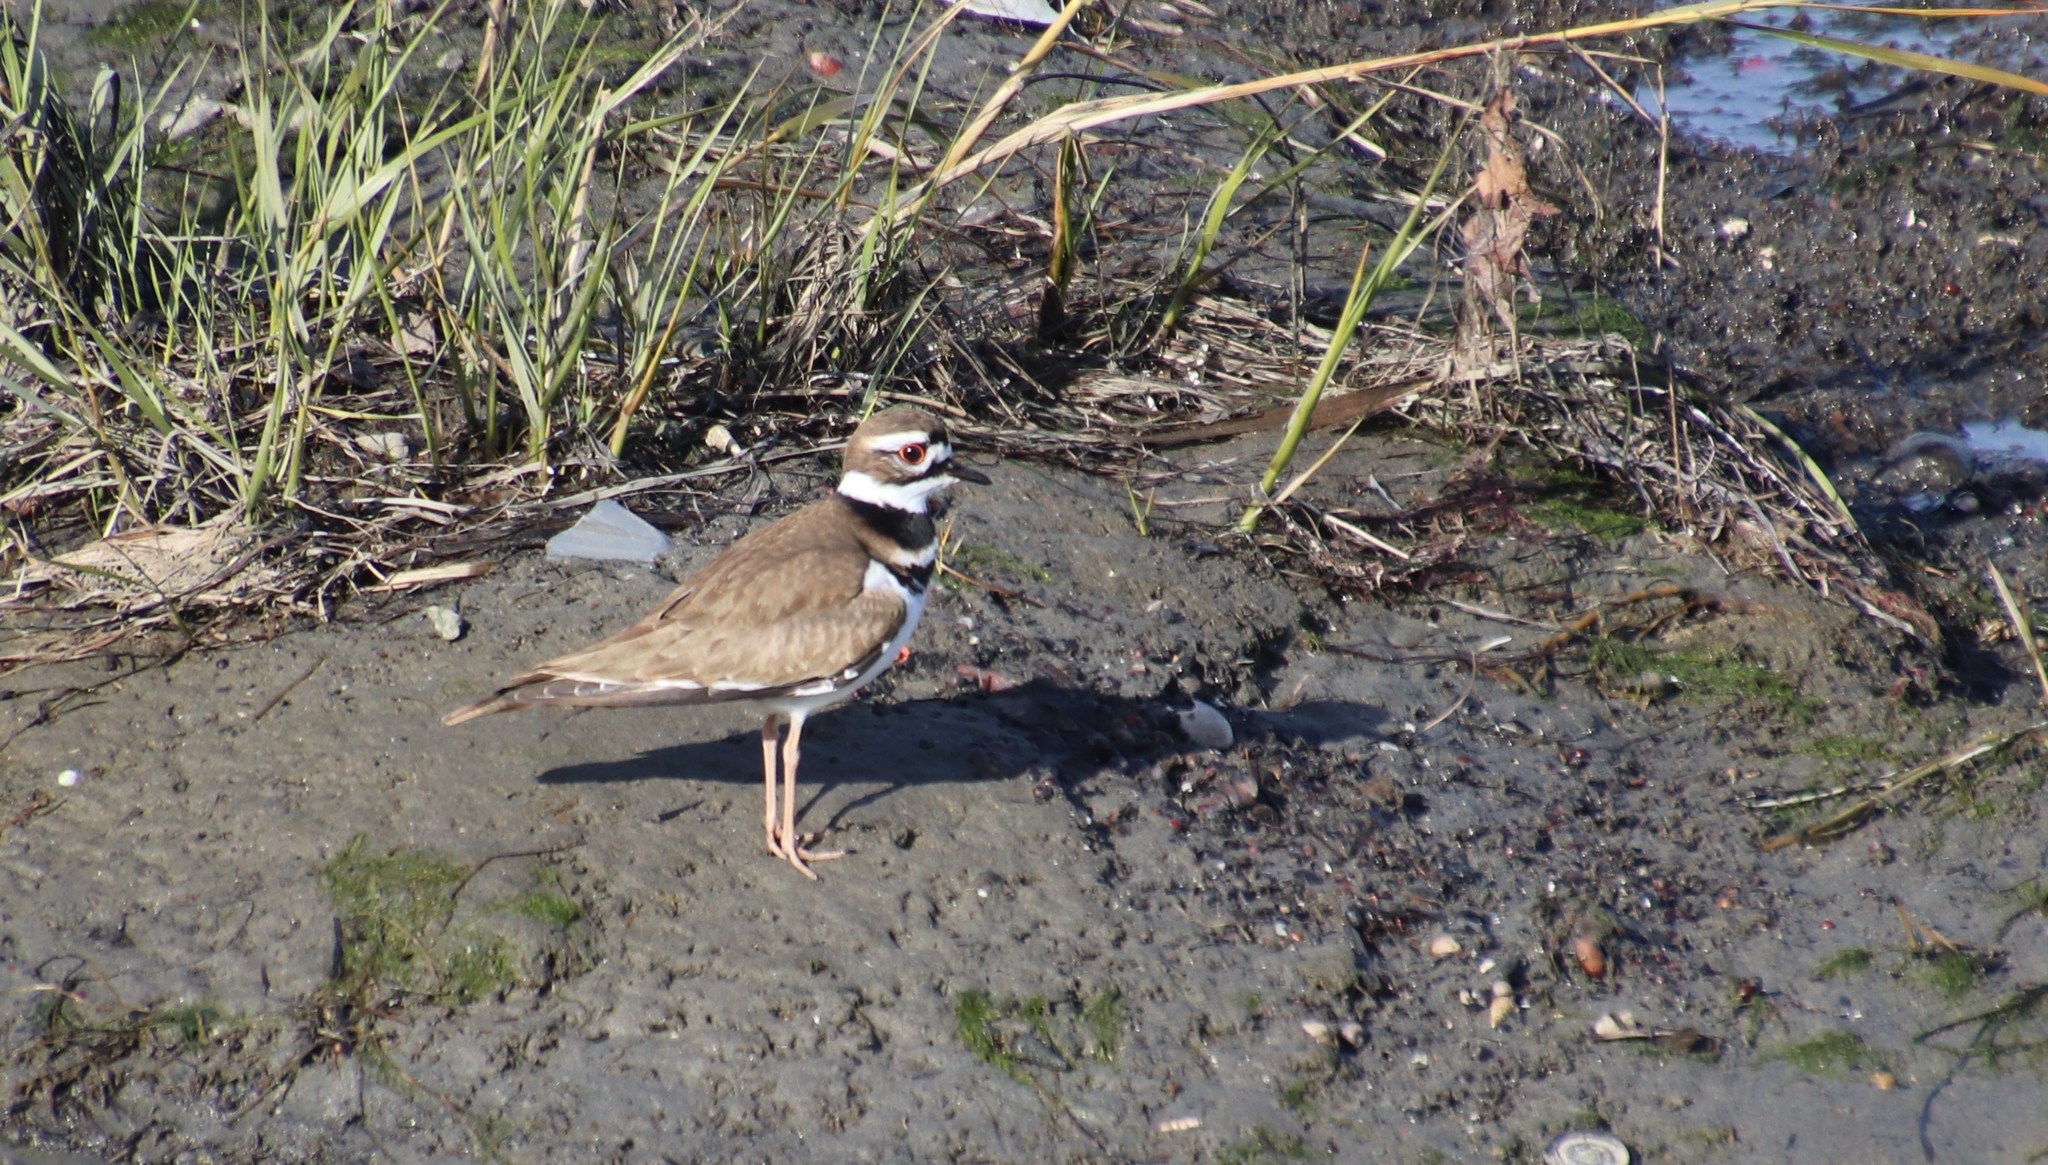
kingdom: Animalia
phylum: Chordata
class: Aves
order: Charadriiformes
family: Charadriidae
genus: Charadrius
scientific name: Charadrius vociferus
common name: Killdeer
